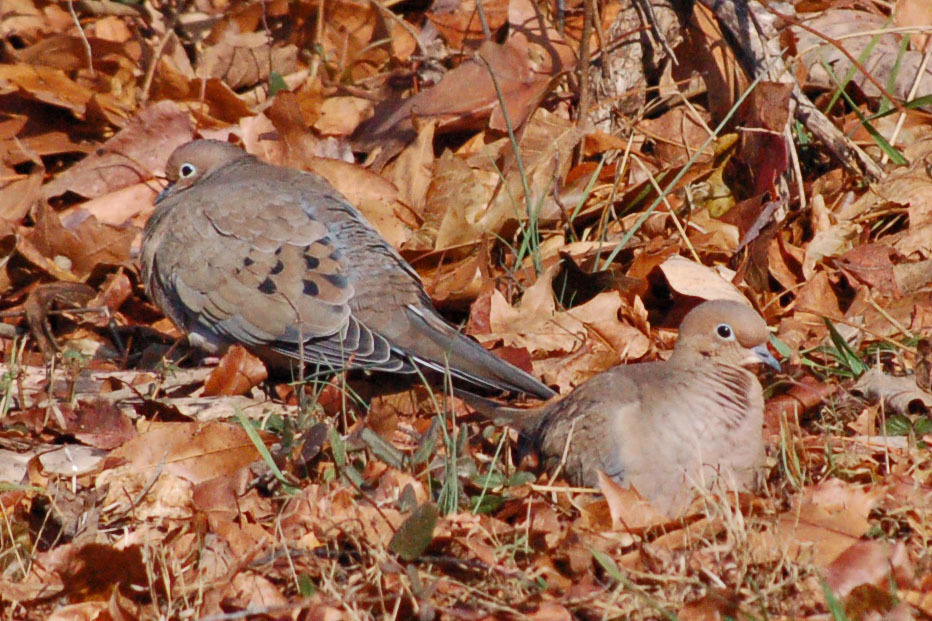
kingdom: Animalia
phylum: Chordata
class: Aves
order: Columbiformes
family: Columbidae
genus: Zenaida
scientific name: Zenaida macroura
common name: Mourning dove
